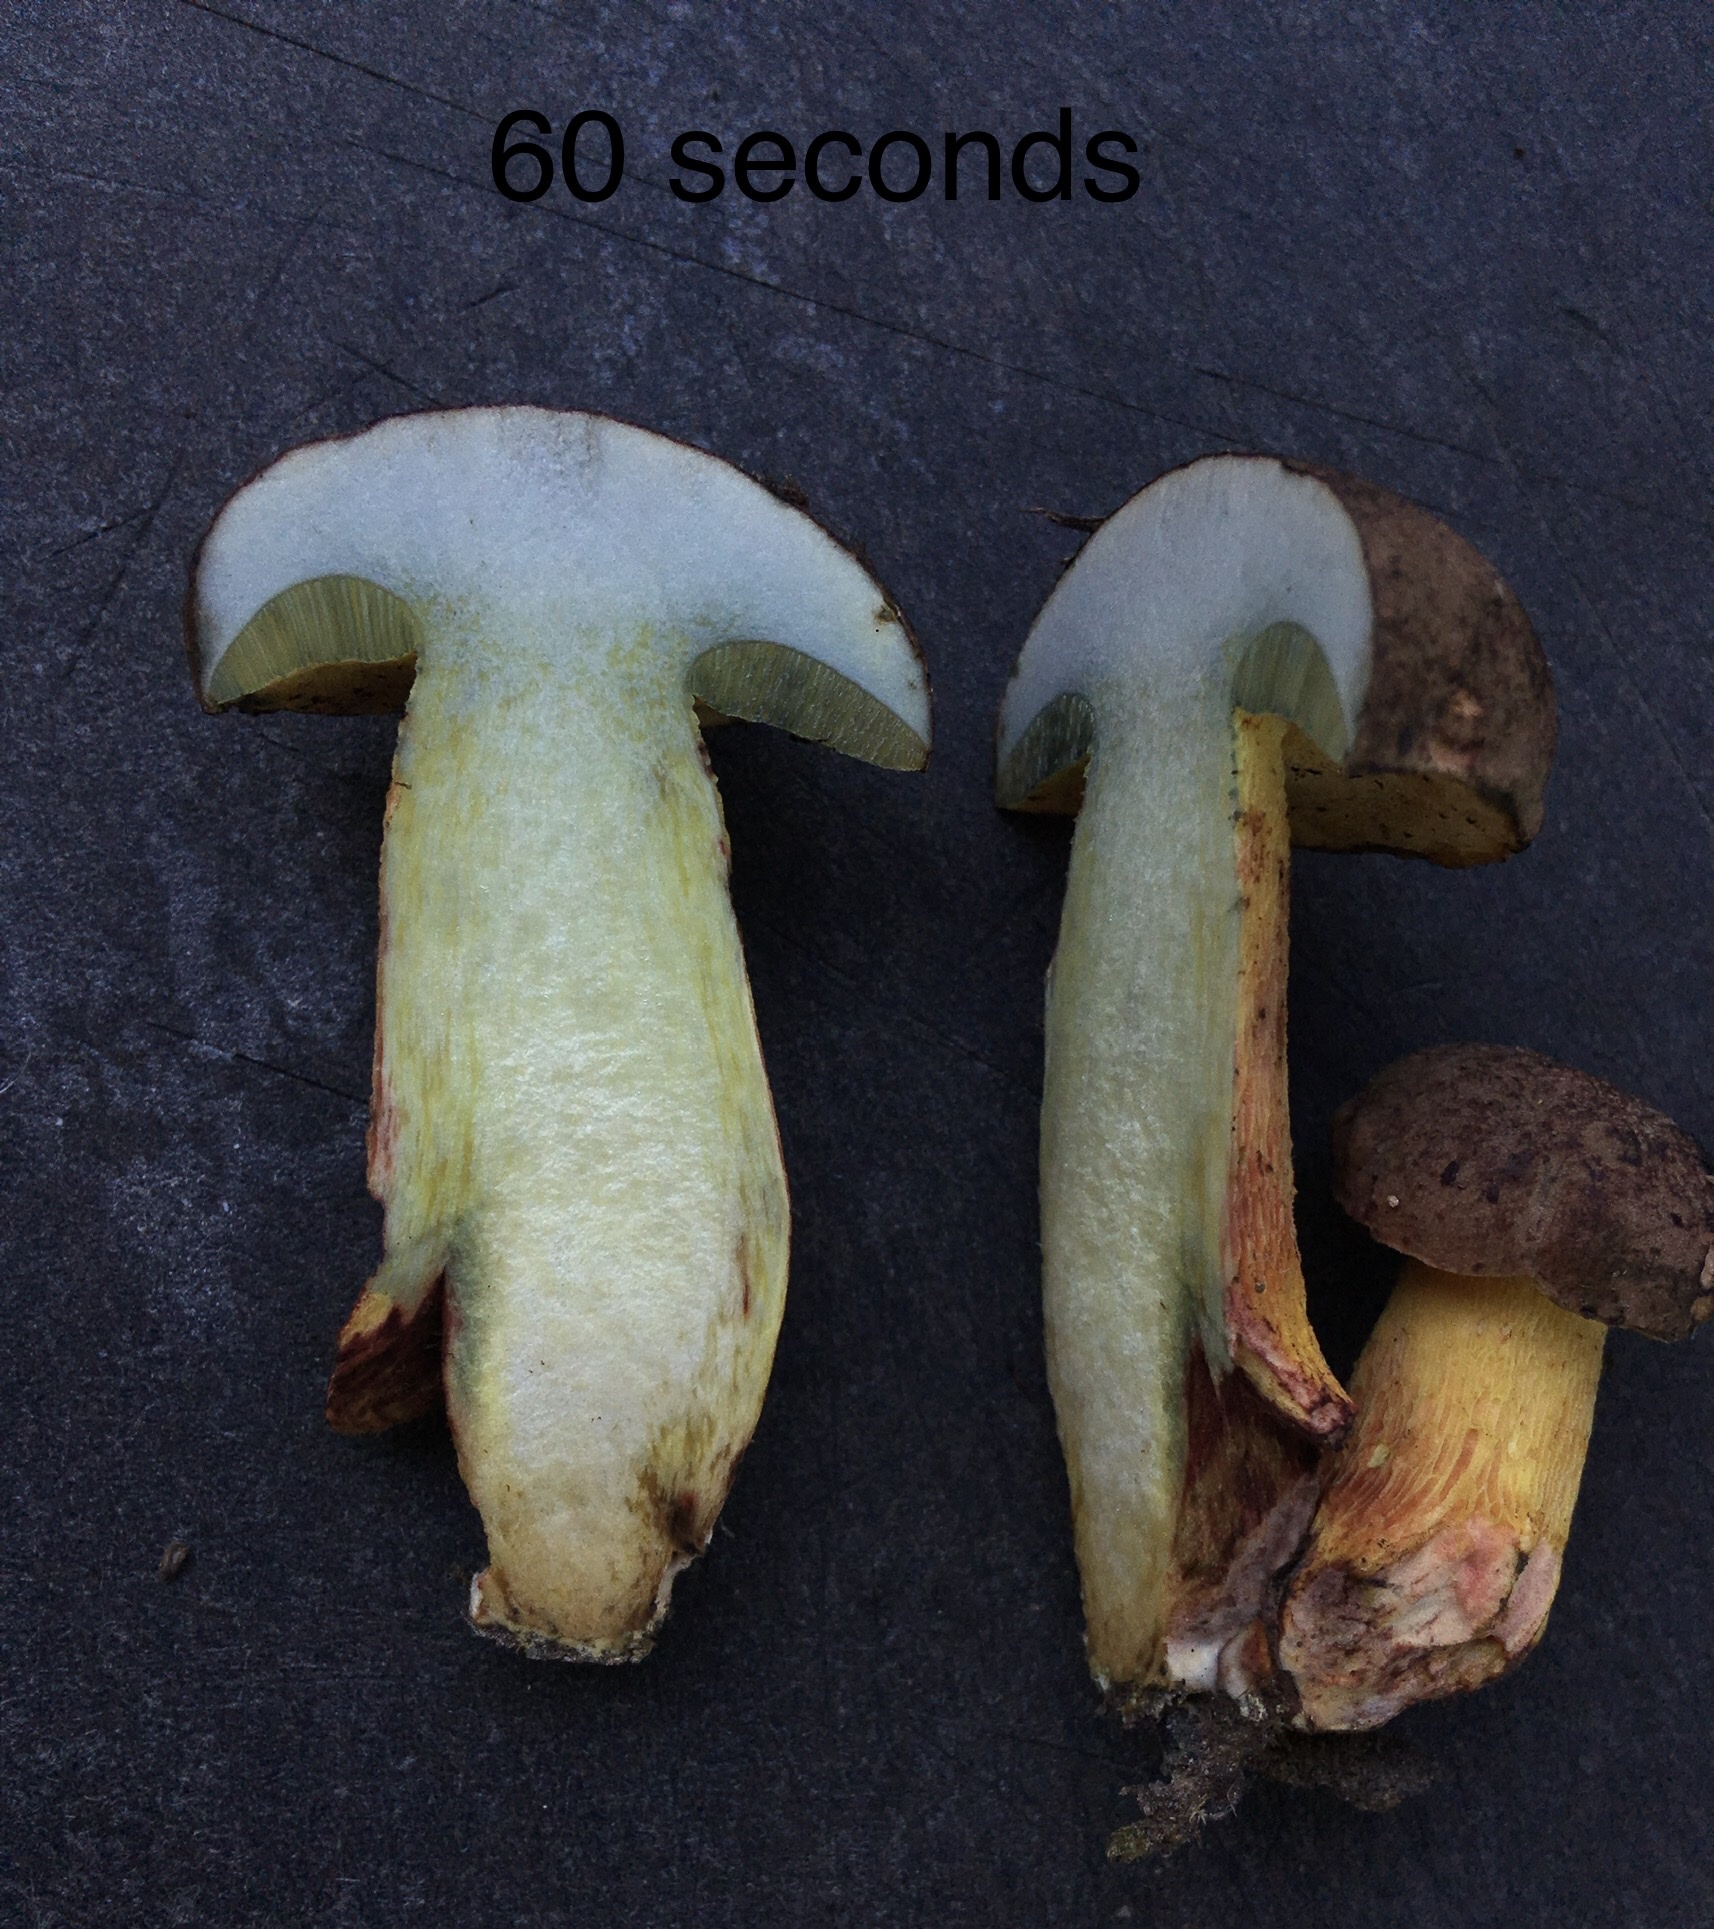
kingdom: Fungi
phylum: Basidiomycota
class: Agaricomycetes
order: Boletales
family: Boletaceae
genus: Boletus
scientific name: Boletus billieae
